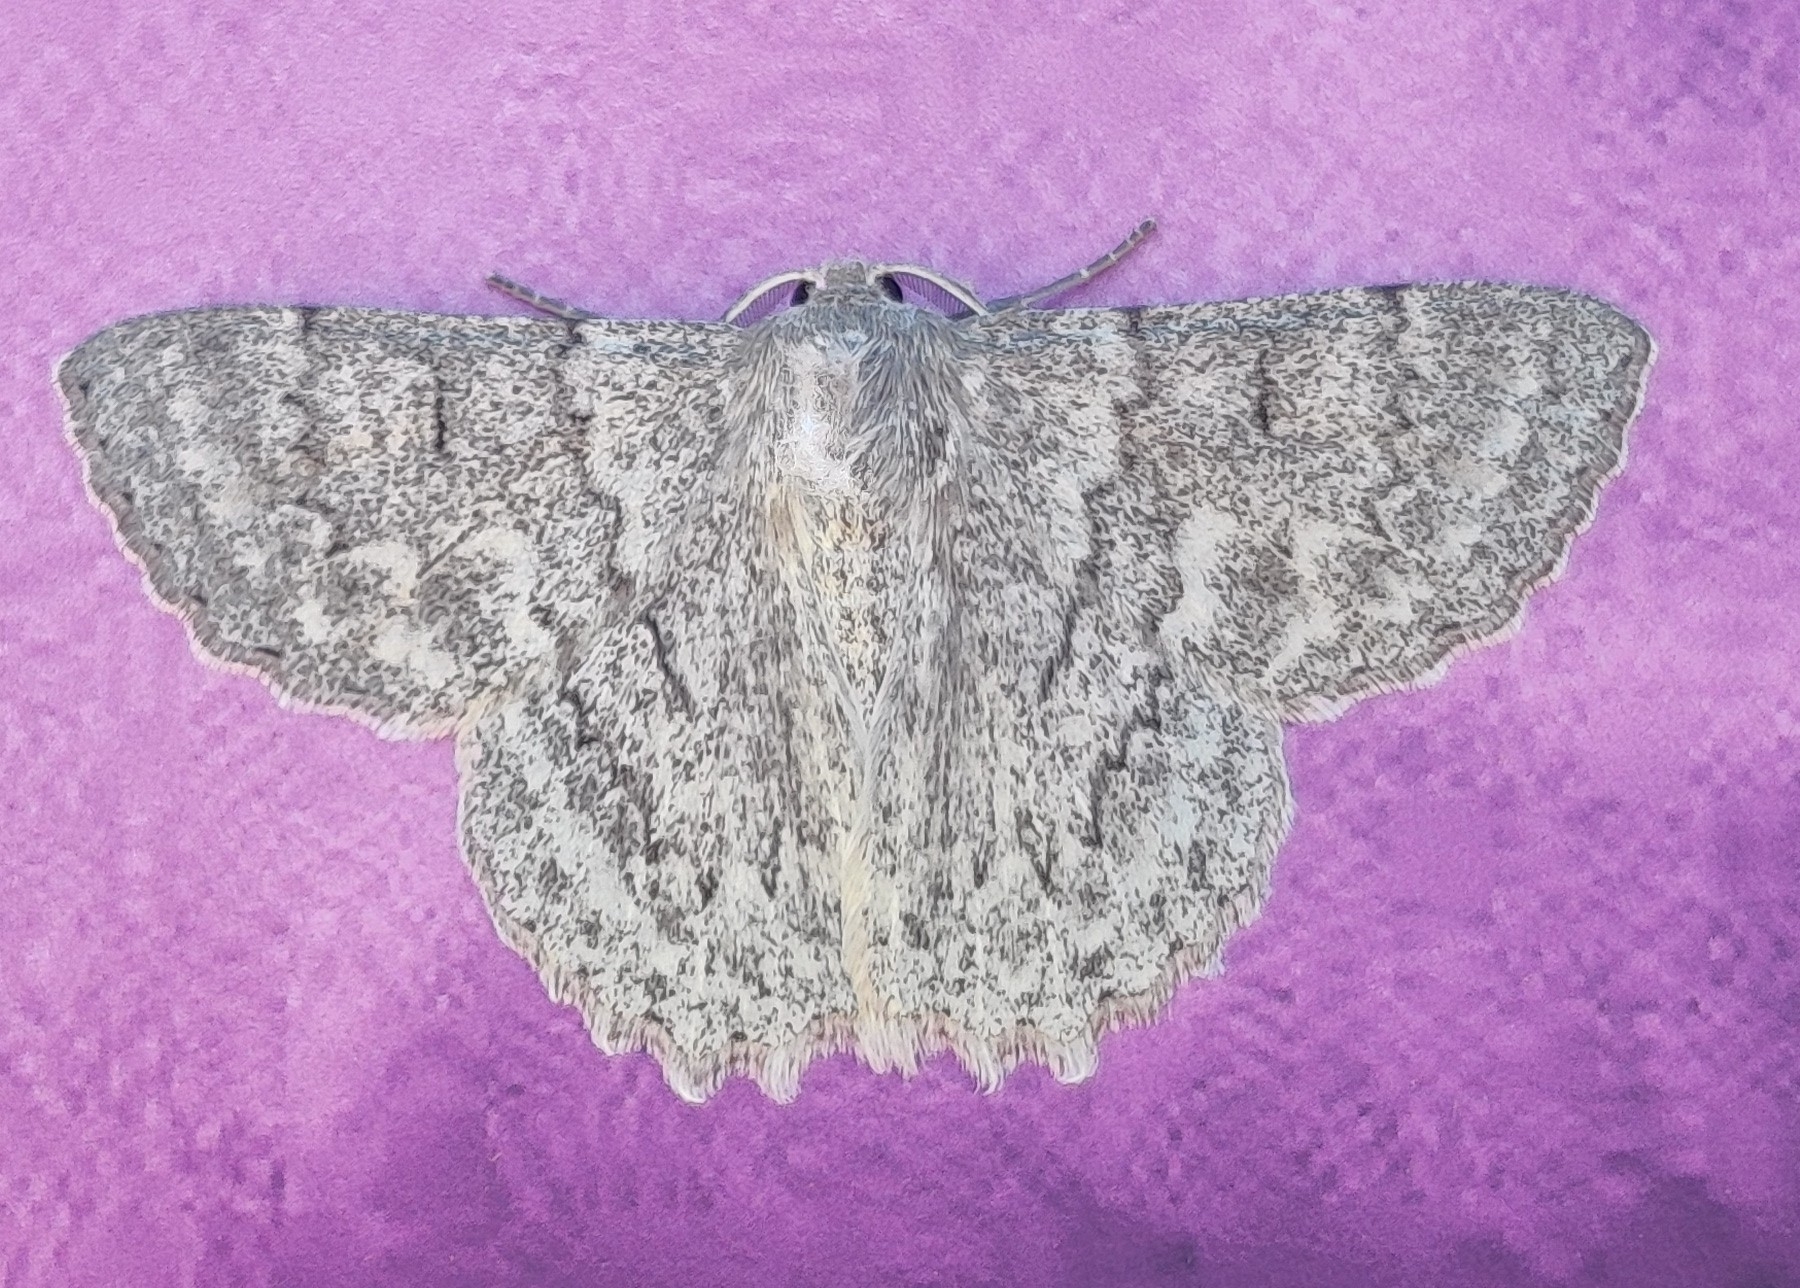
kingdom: Animalia
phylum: Arthropoda
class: Insecta
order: Lepidoptera
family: Geometridae
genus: Crypsiphona
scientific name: Crypsiphona ocultaria
